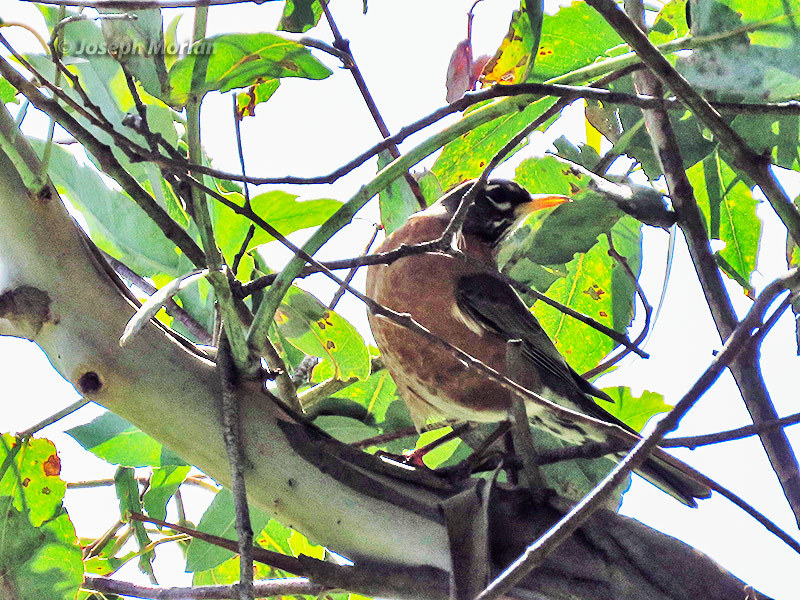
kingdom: Animalia
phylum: Chordata
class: Aves
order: Passeriformes
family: Turdidae
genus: Turdus
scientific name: Turdus migratorius
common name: American robin
